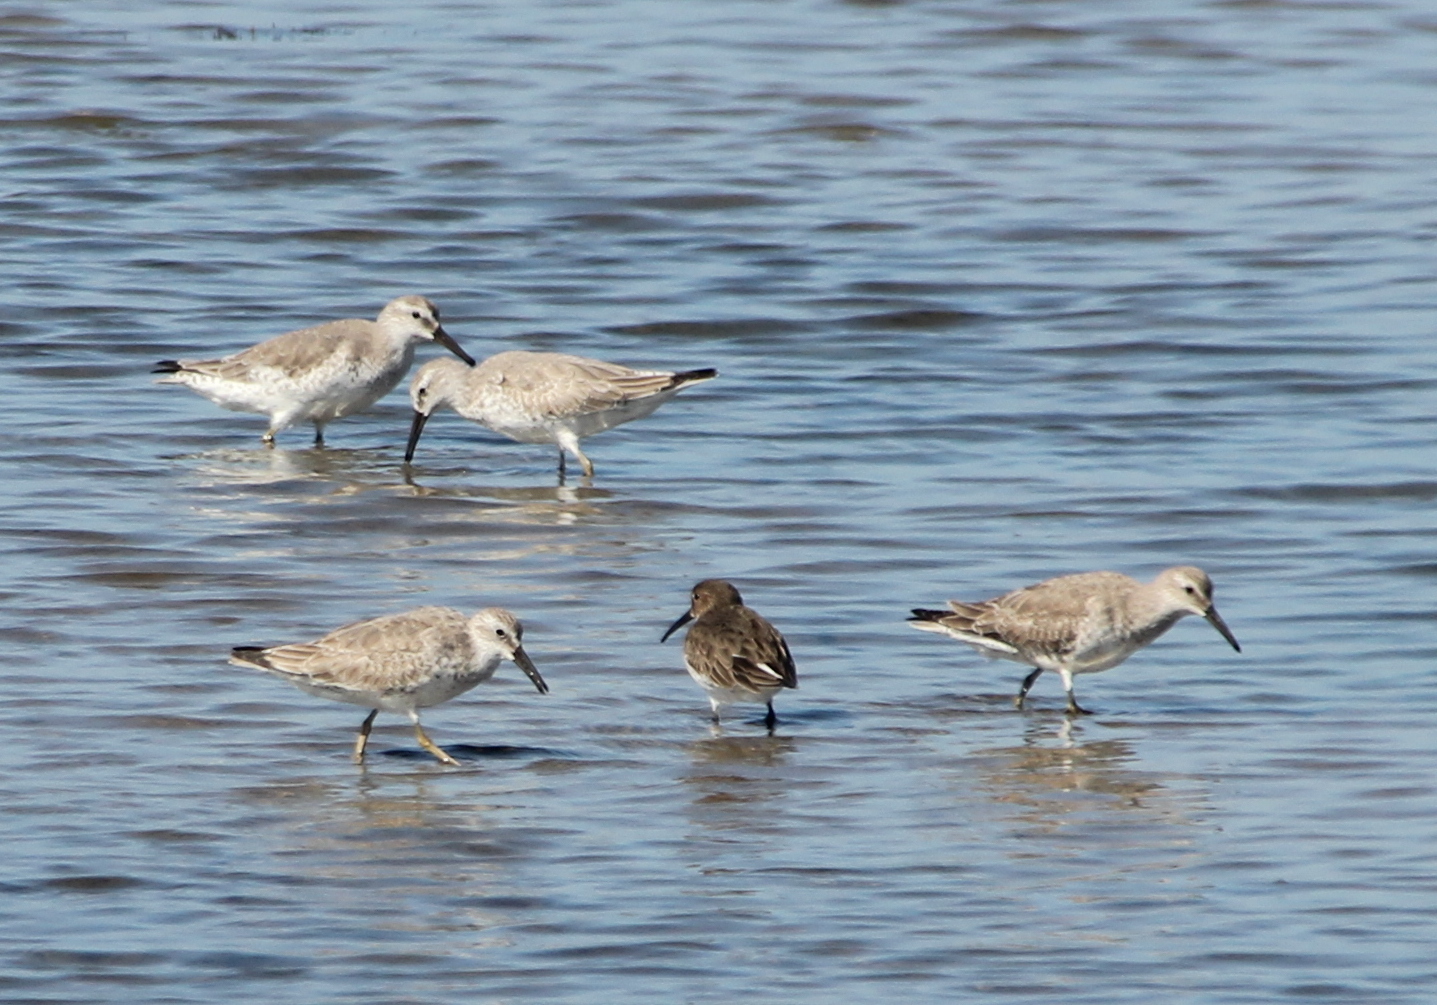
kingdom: Animalia
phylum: Chordata
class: Aves
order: Charadriiformes
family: Scolopacidae
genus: Calidris
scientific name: Calidris canutus
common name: Red knot
